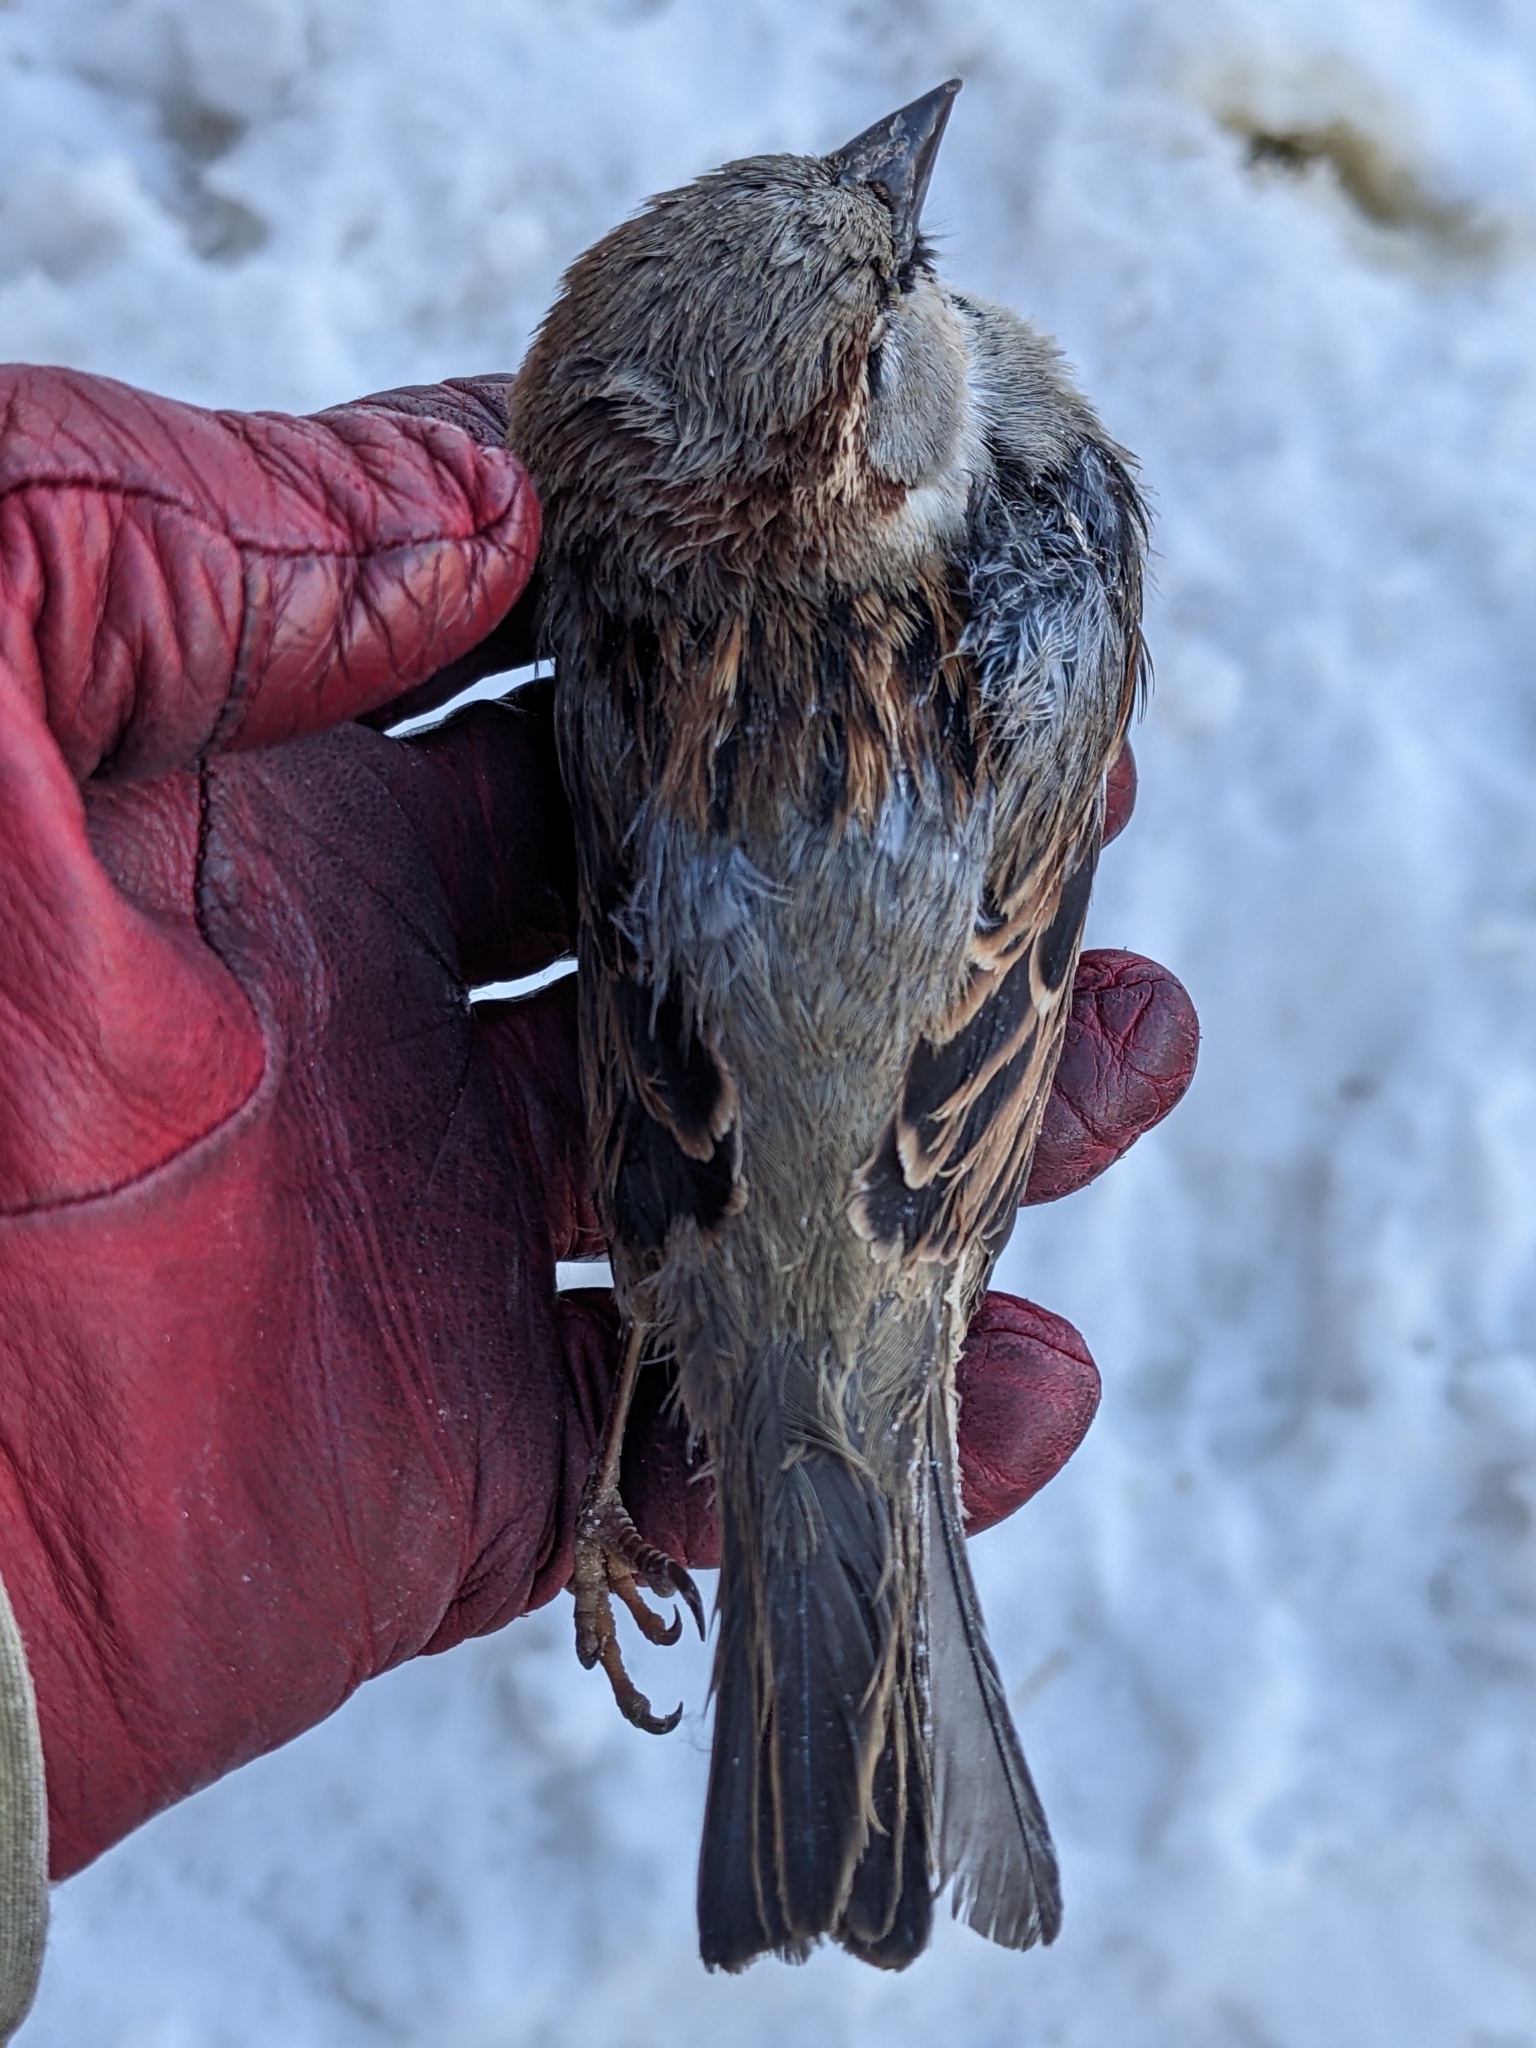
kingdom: Animalia
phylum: Chordata
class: Aves
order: Passeriformes
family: Passeridae
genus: Passer
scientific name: Passer domesticus
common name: House sparrow
